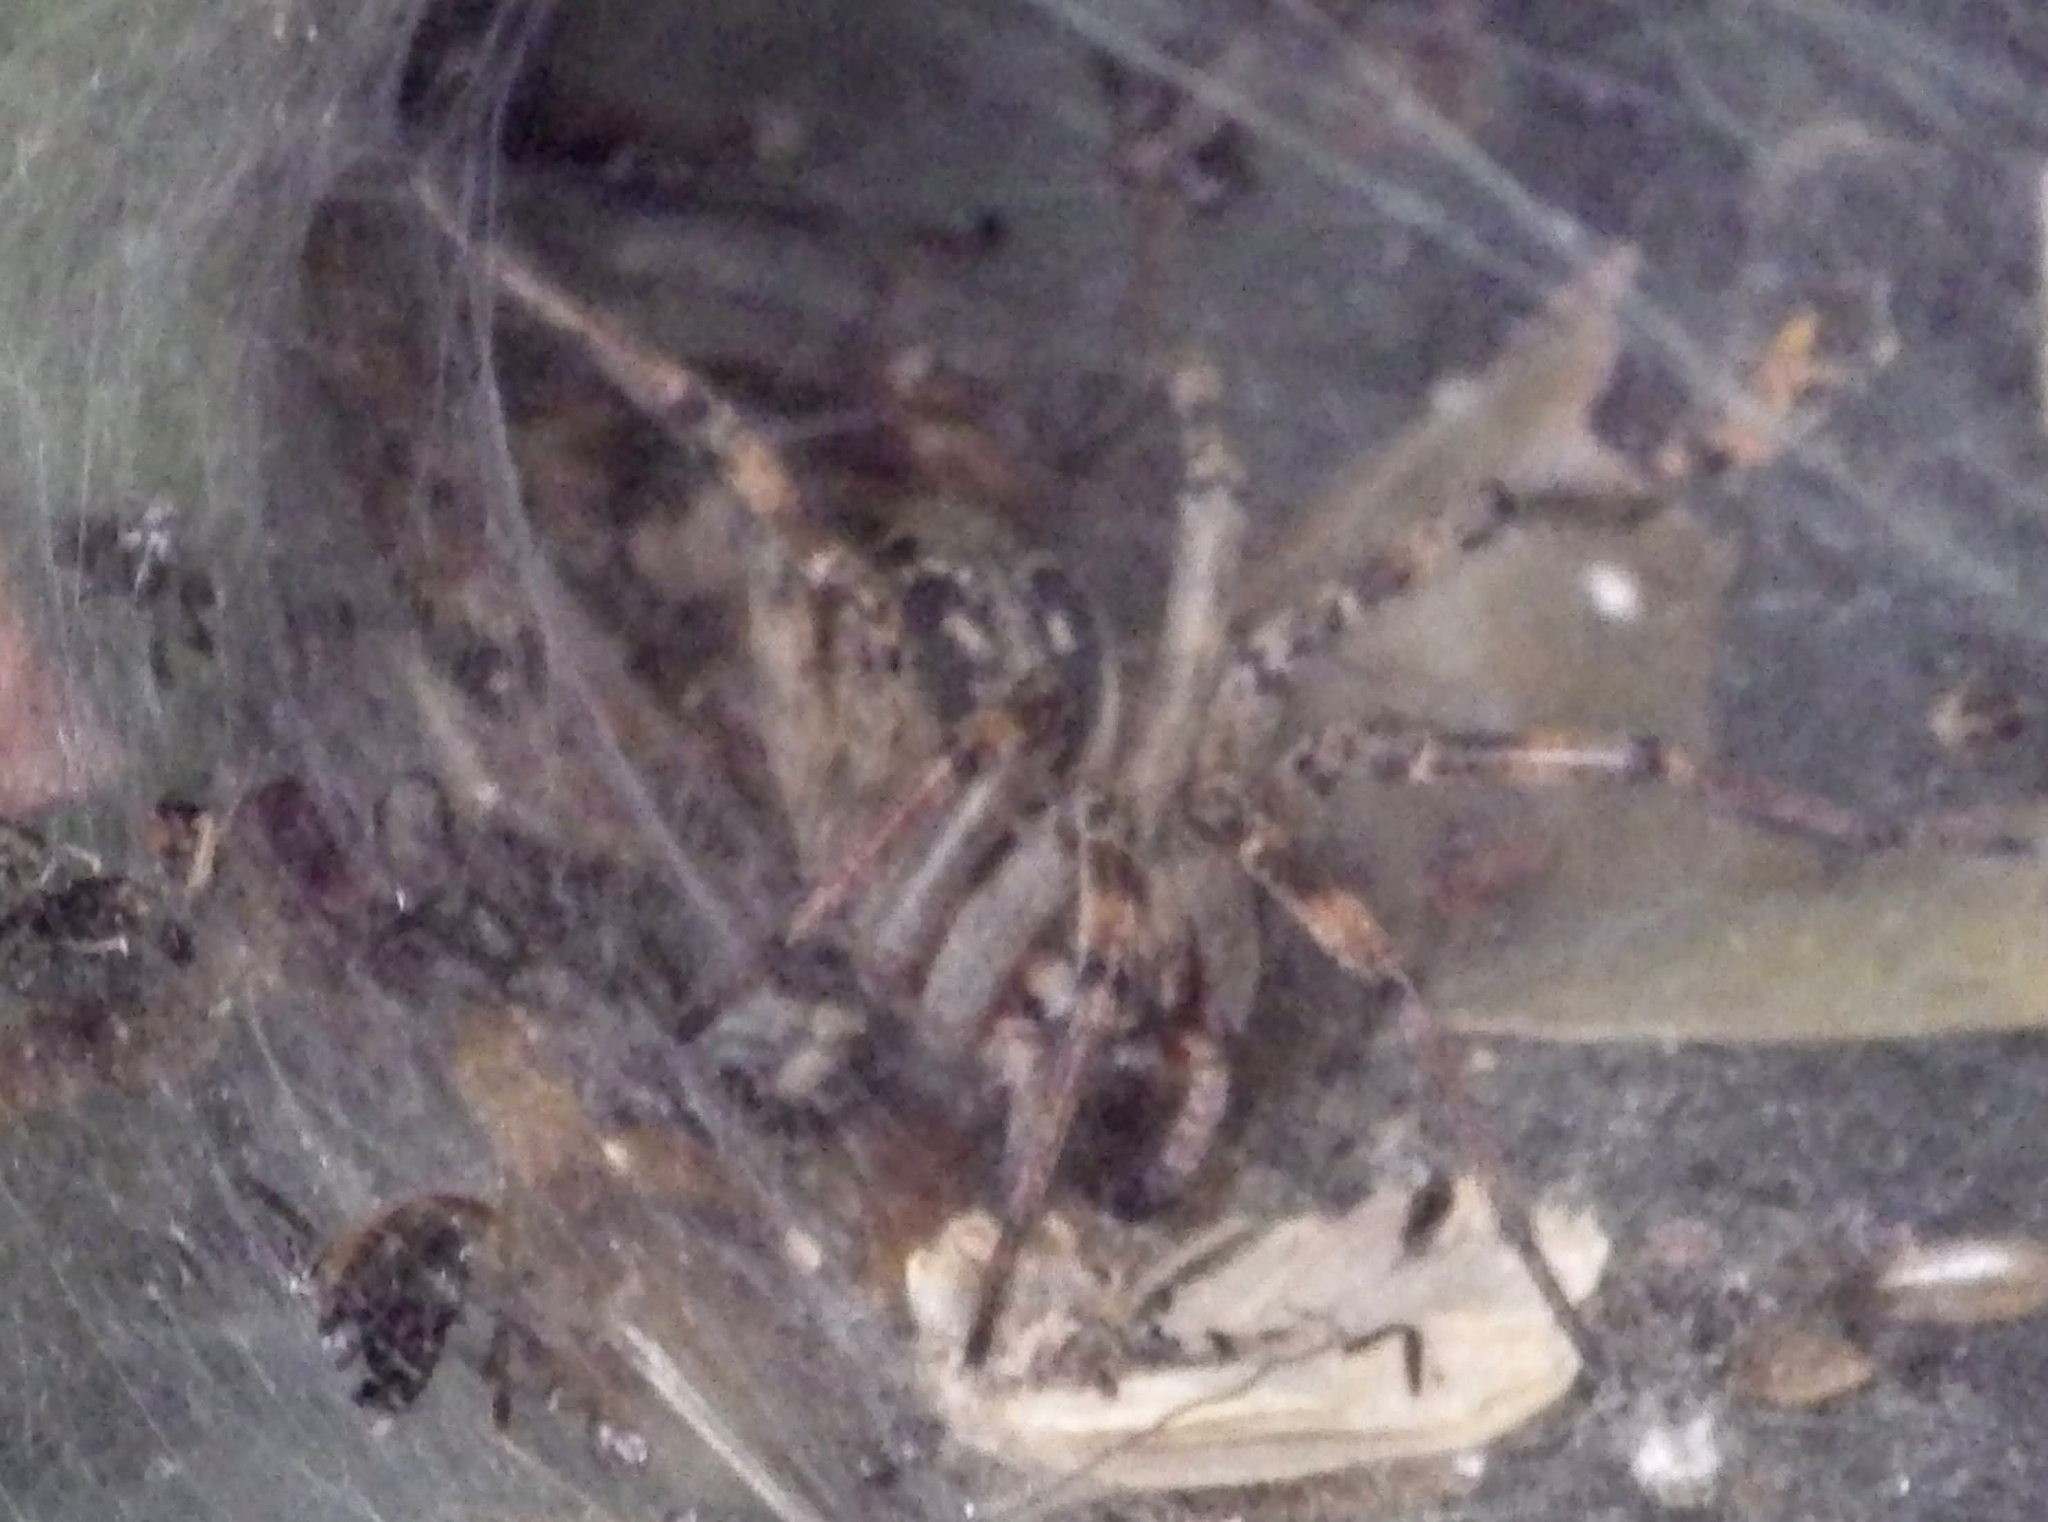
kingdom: Animalia
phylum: Arthropoda
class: Arachnida
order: Araneae
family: Agelenidae
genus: Agelena
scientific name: Agelena labyrinthica
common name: Labyrinth spider
